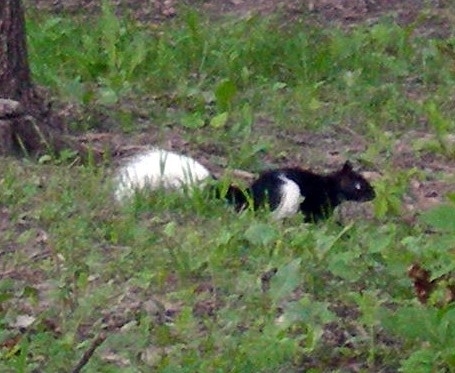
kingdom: Animalia
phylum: Chordata
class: Mammalia
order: Rodentia
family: Sciuridae
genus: Sciurus
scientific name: Sciurus carolinensis
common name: Eastern gray squirrel
